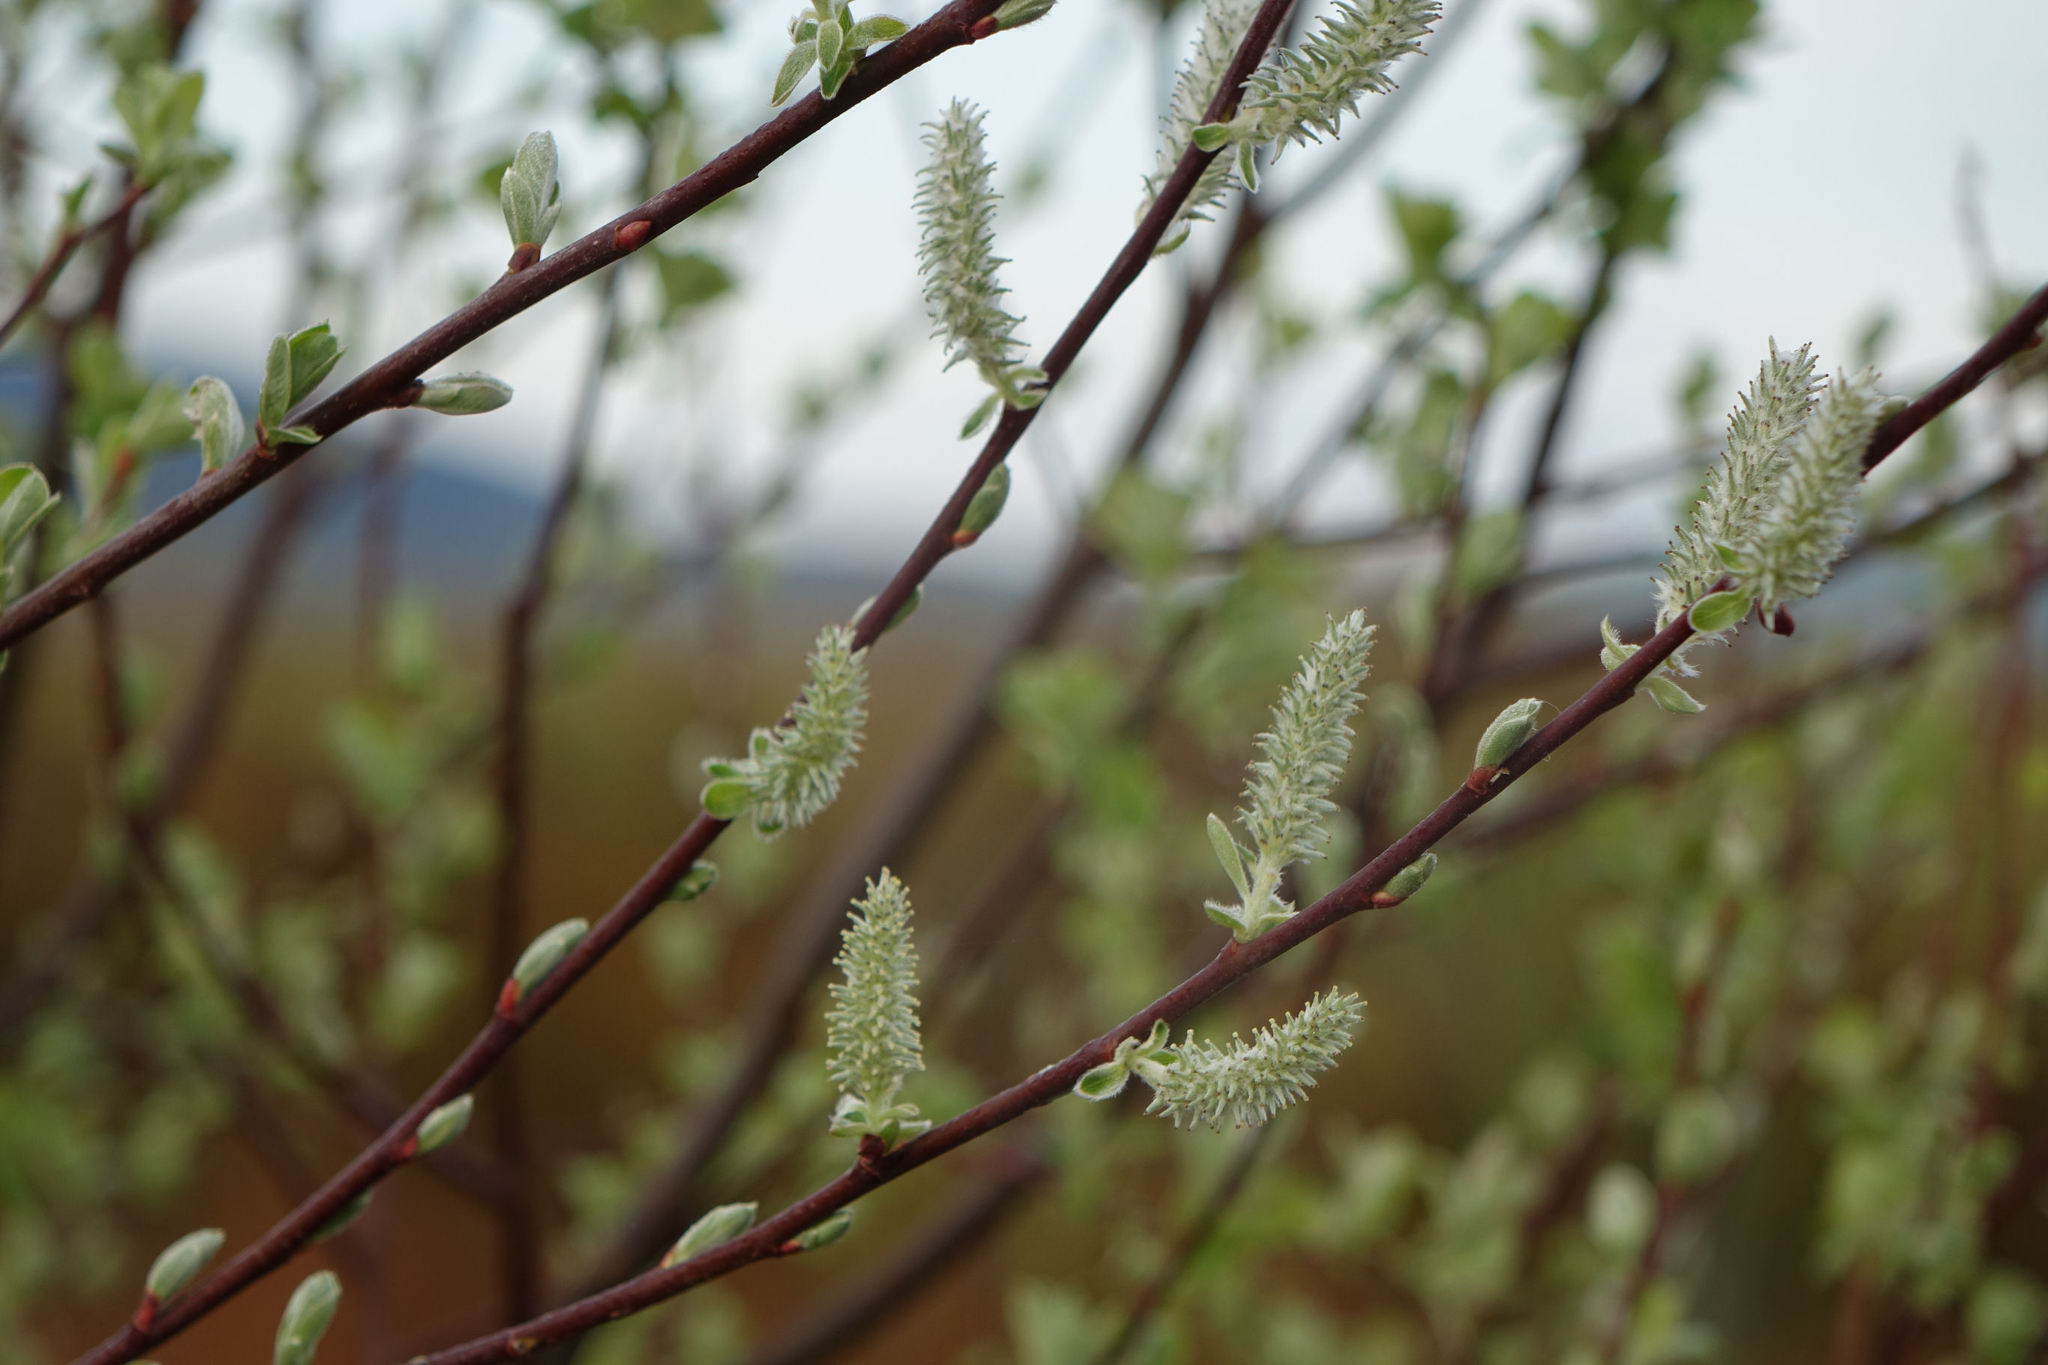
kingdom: Plantae
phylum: Tracheophyta
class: Magnoliopsida
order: Malpighiales
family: Salicaceae
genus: Salix
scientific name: Salix cinerea
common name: Common sallow
